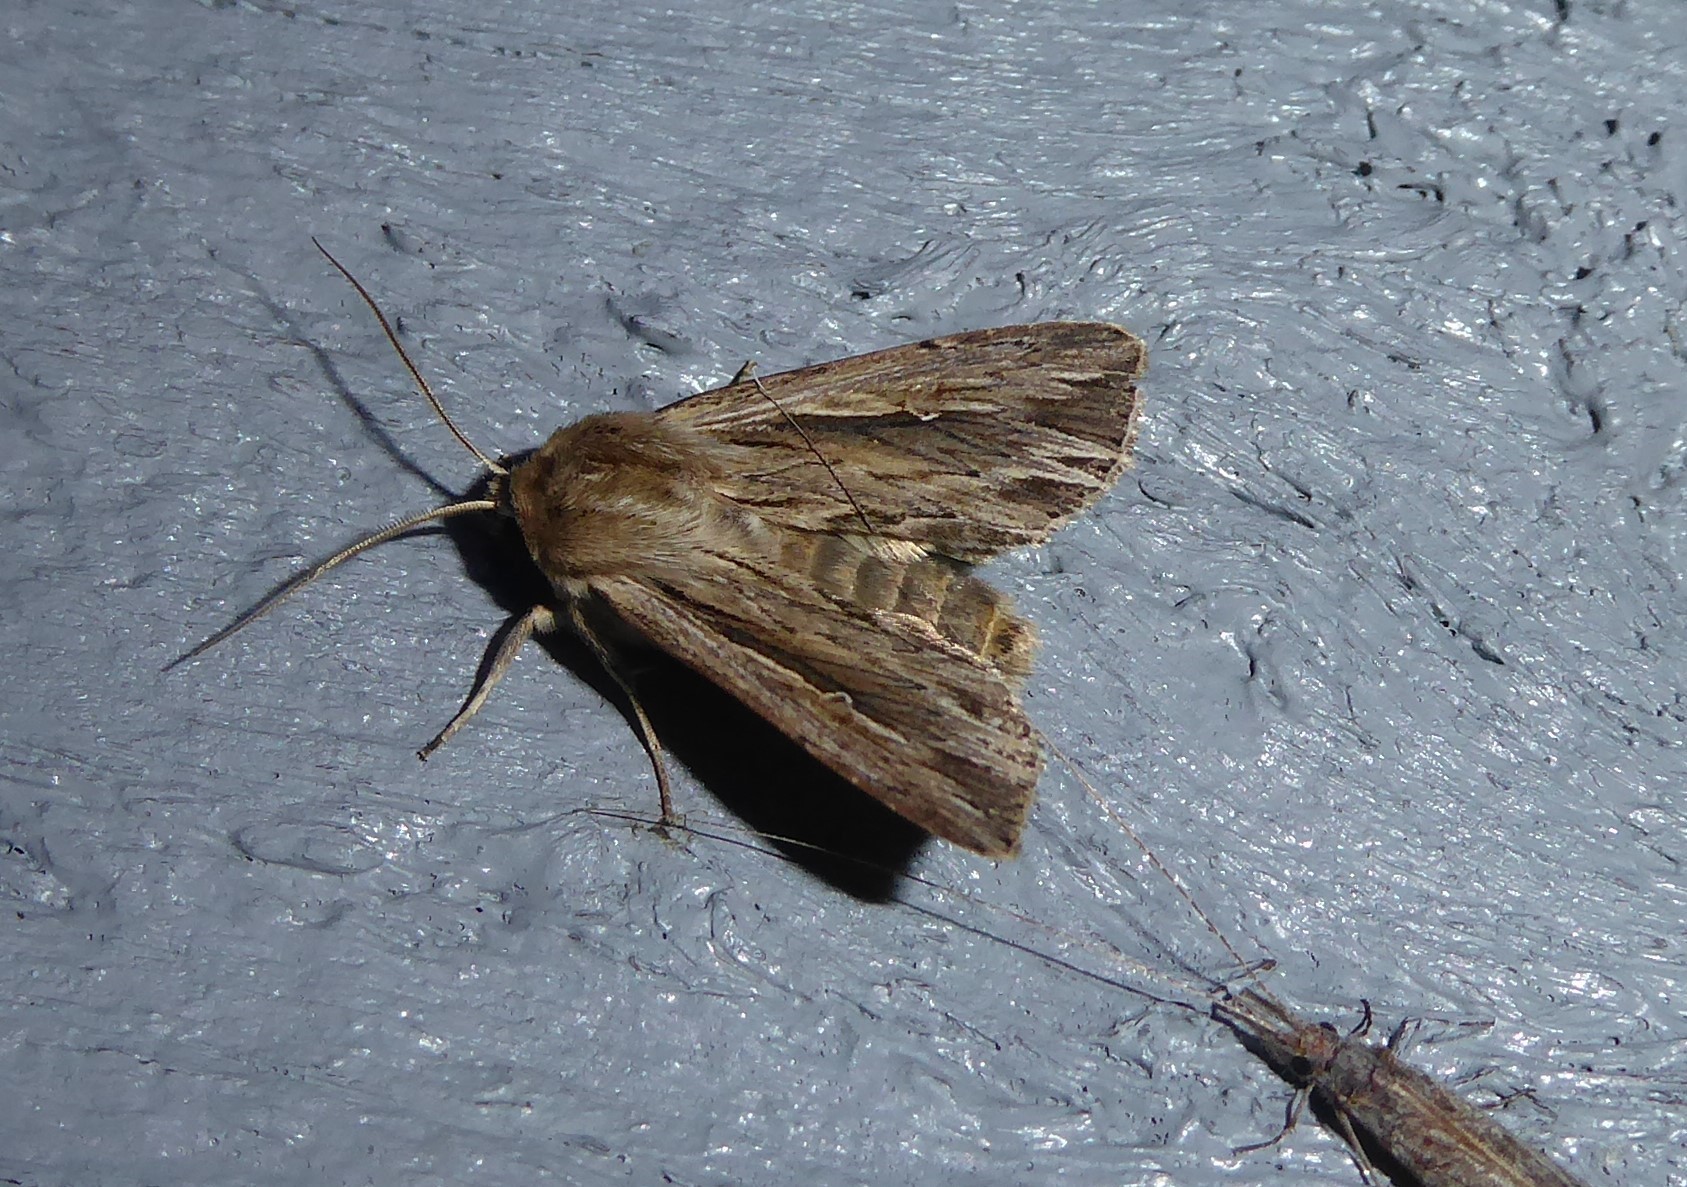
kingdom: Animalia
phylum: Arthropoda
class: Insecta
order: Lepidoptera
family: Noctuidae
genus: Persectania
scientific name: Persectania aversa
